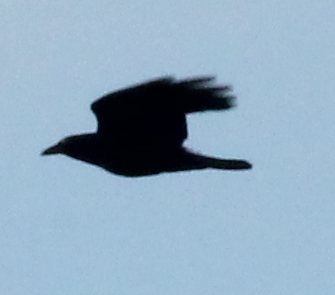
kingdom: Animalia
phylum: Chordata
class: Aves
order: Passeriformes
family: Corvidae
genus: Corvus
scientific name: Corvus brachyrhynchos
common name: American crow
